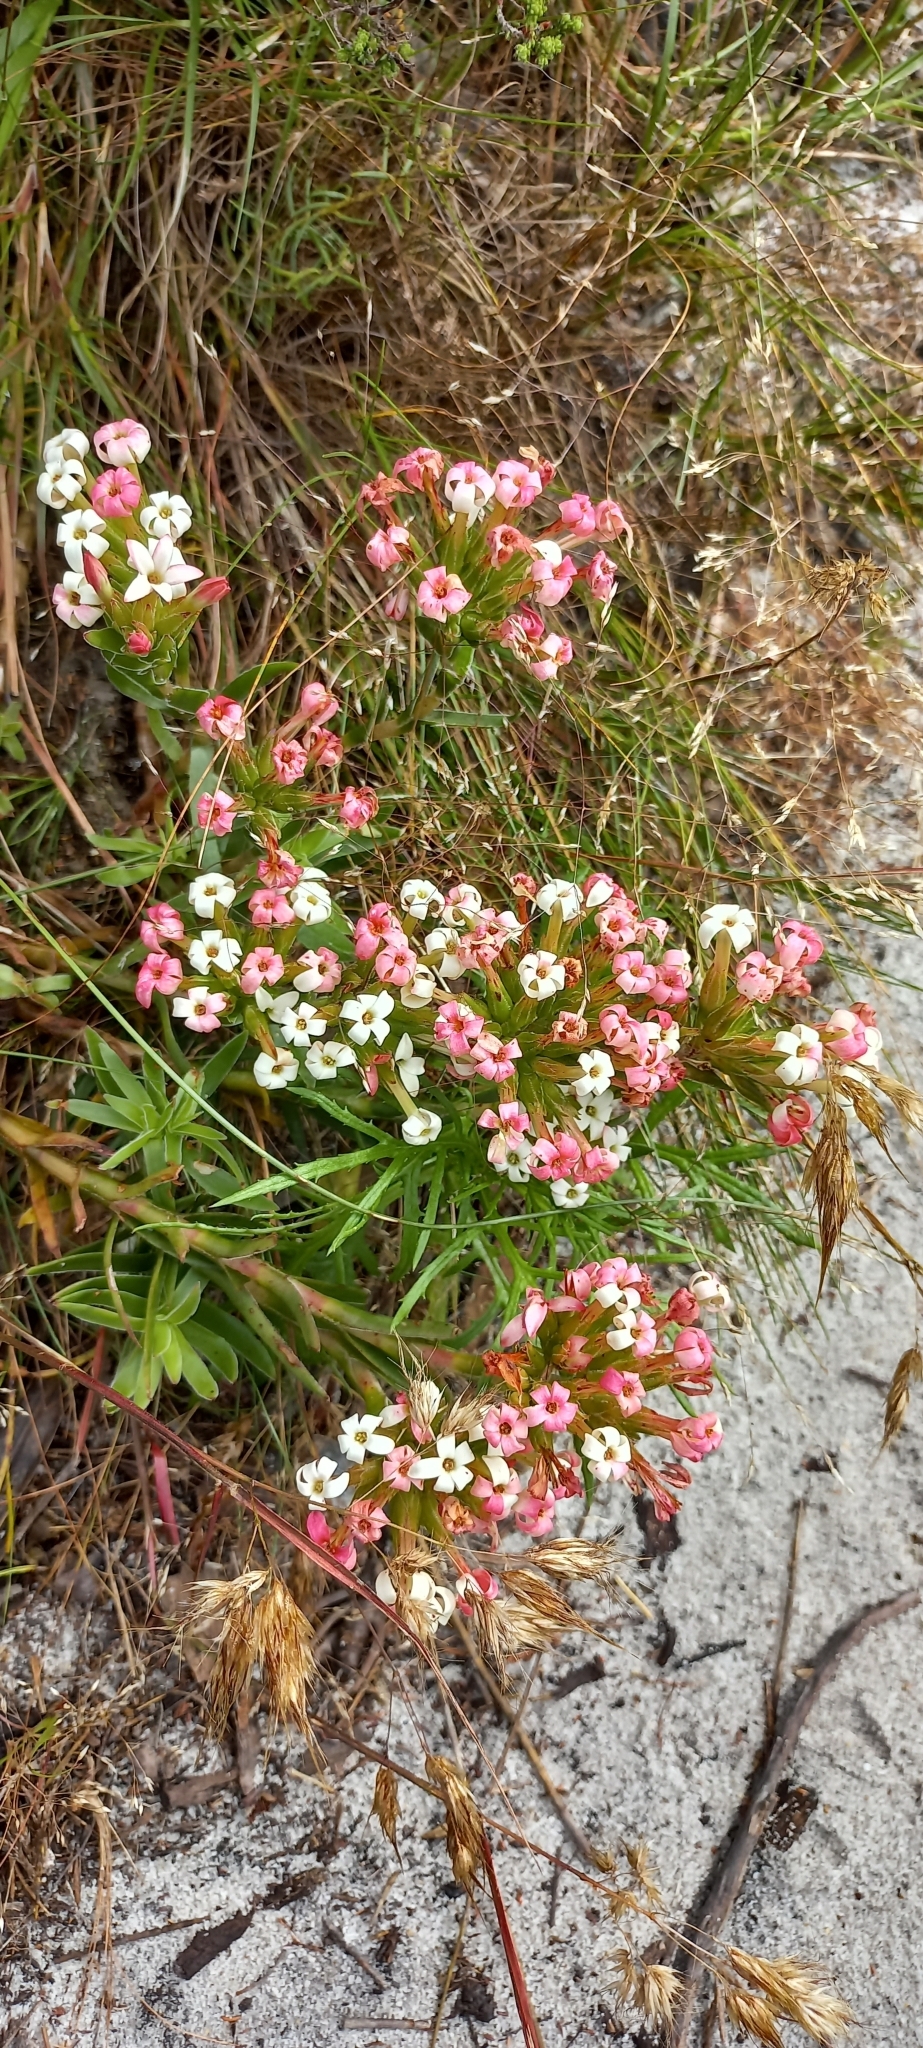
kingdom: Plantae
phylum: Tracheophyta
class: Magnoliopsida
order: Saxifragales
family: Crassulaceae
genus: Crassula
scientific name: Crassula fascicularis
